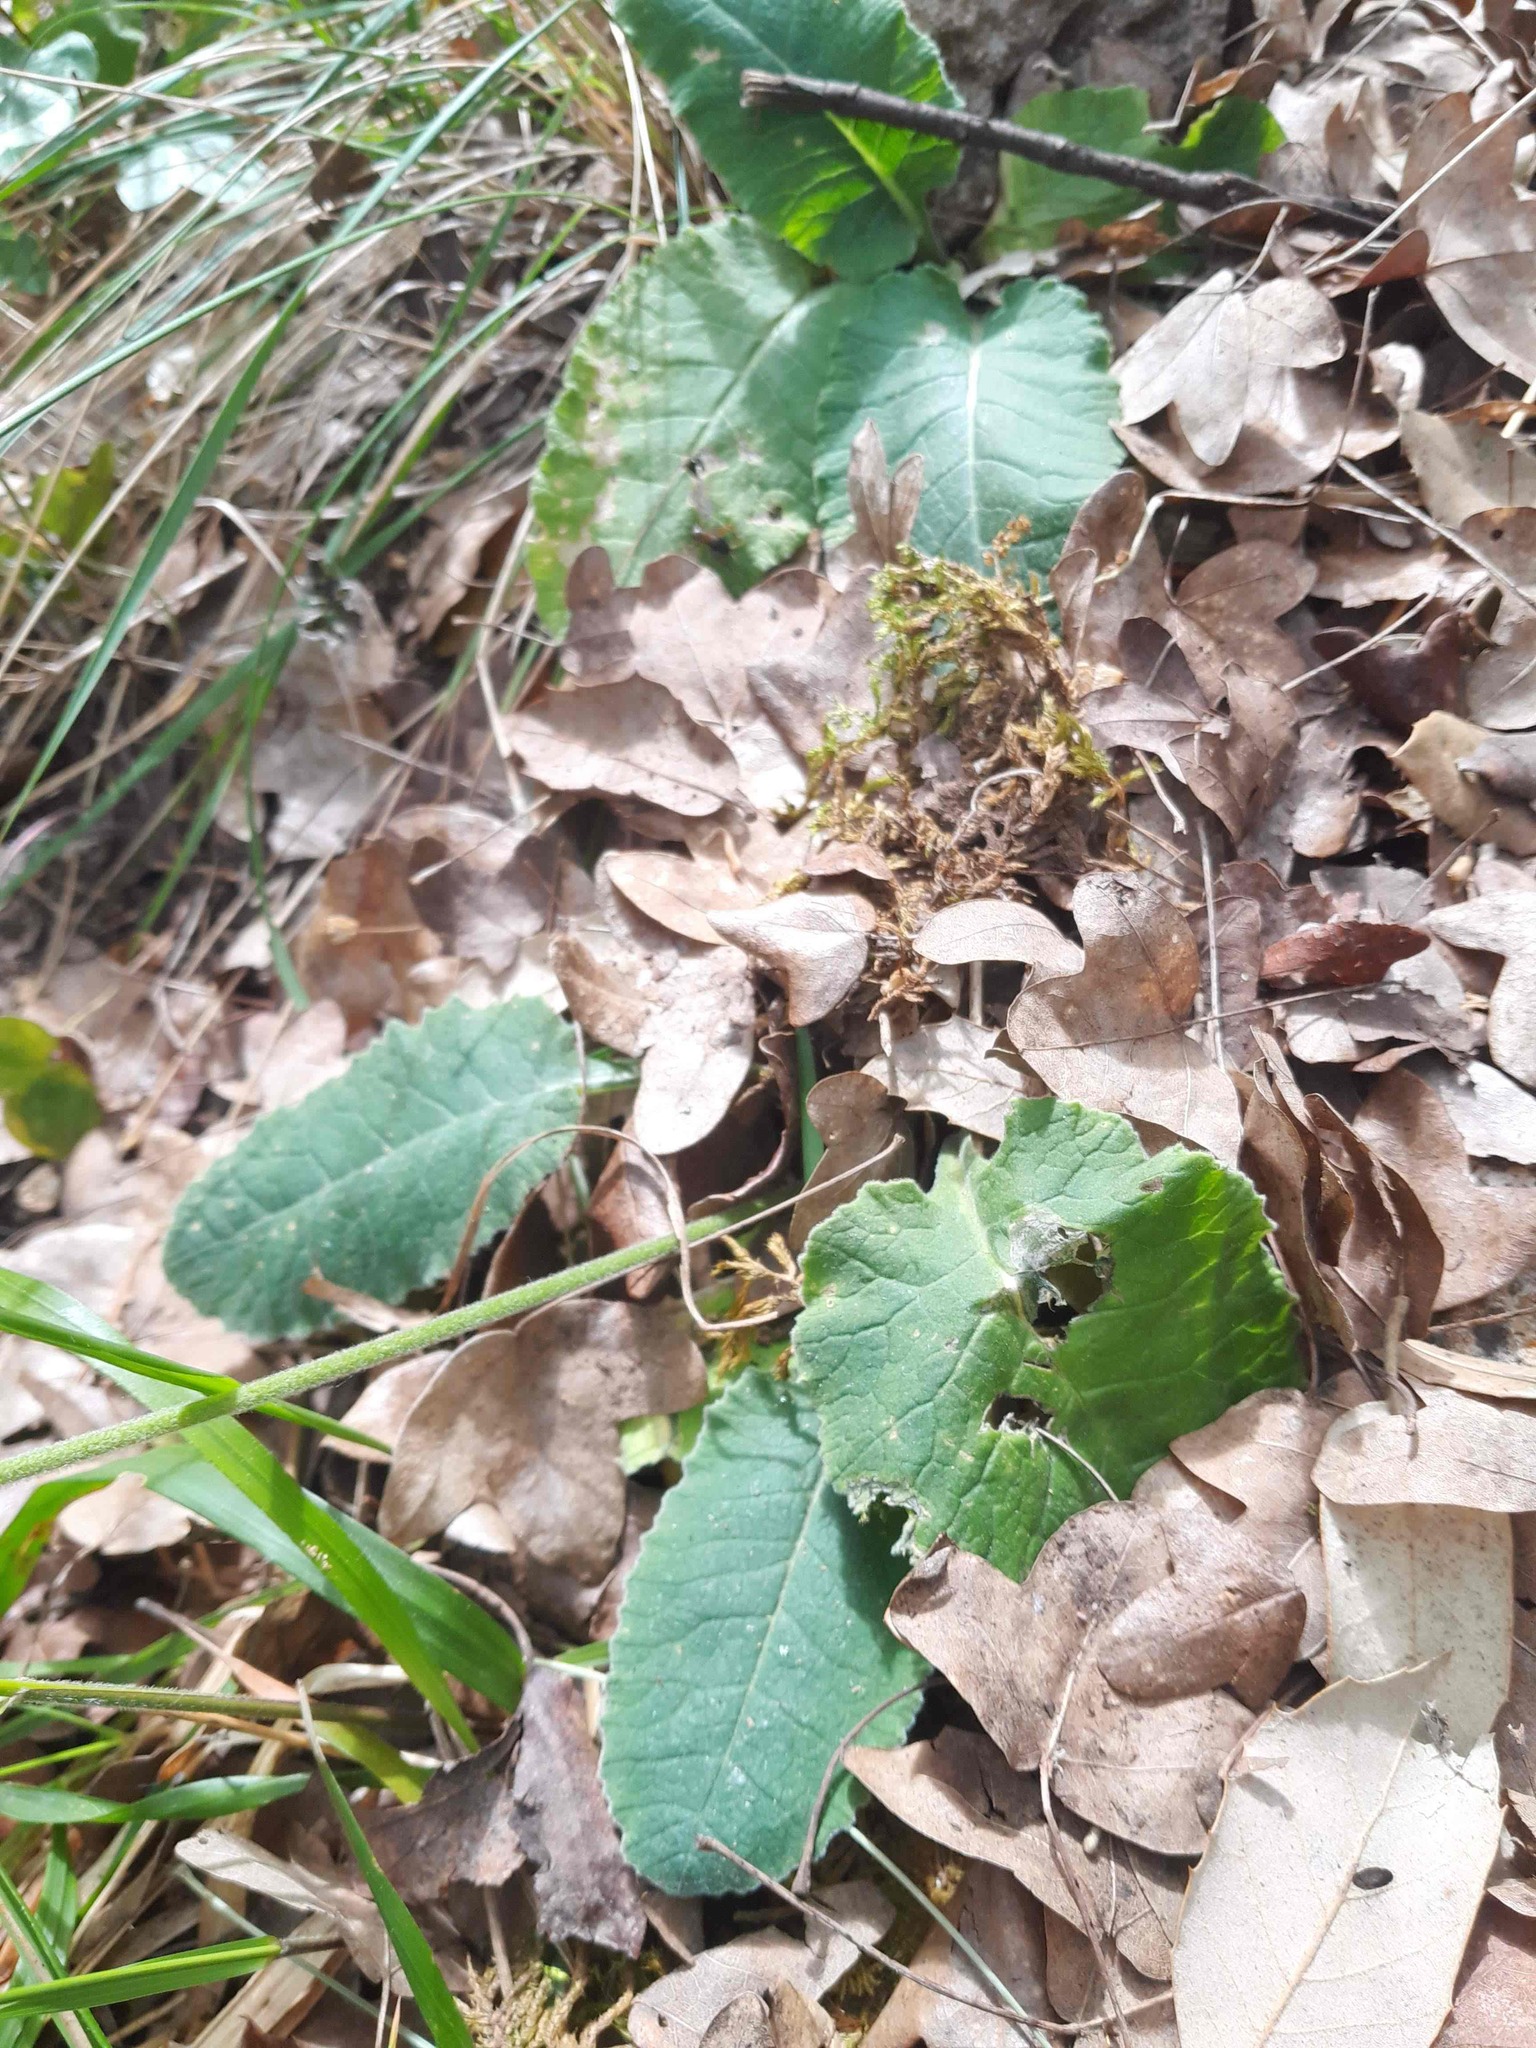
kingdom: Plantae
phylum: Tracheophyta
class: Magnoliopsida
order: Ericales
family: Primulaceae
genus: Primula
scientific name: Primula veris
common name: Cowslip
